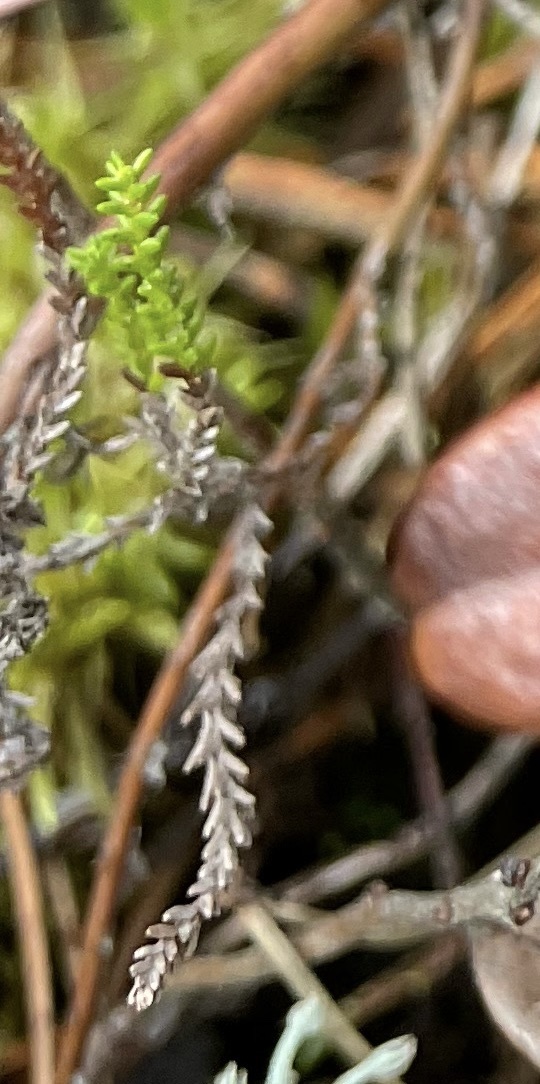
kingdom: Plantae
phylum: Tracheophyta
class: Magnoliopsida
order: Ericales
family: Ericaceae
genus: Calluna
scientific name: Calluna vulgaris
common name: Heather
